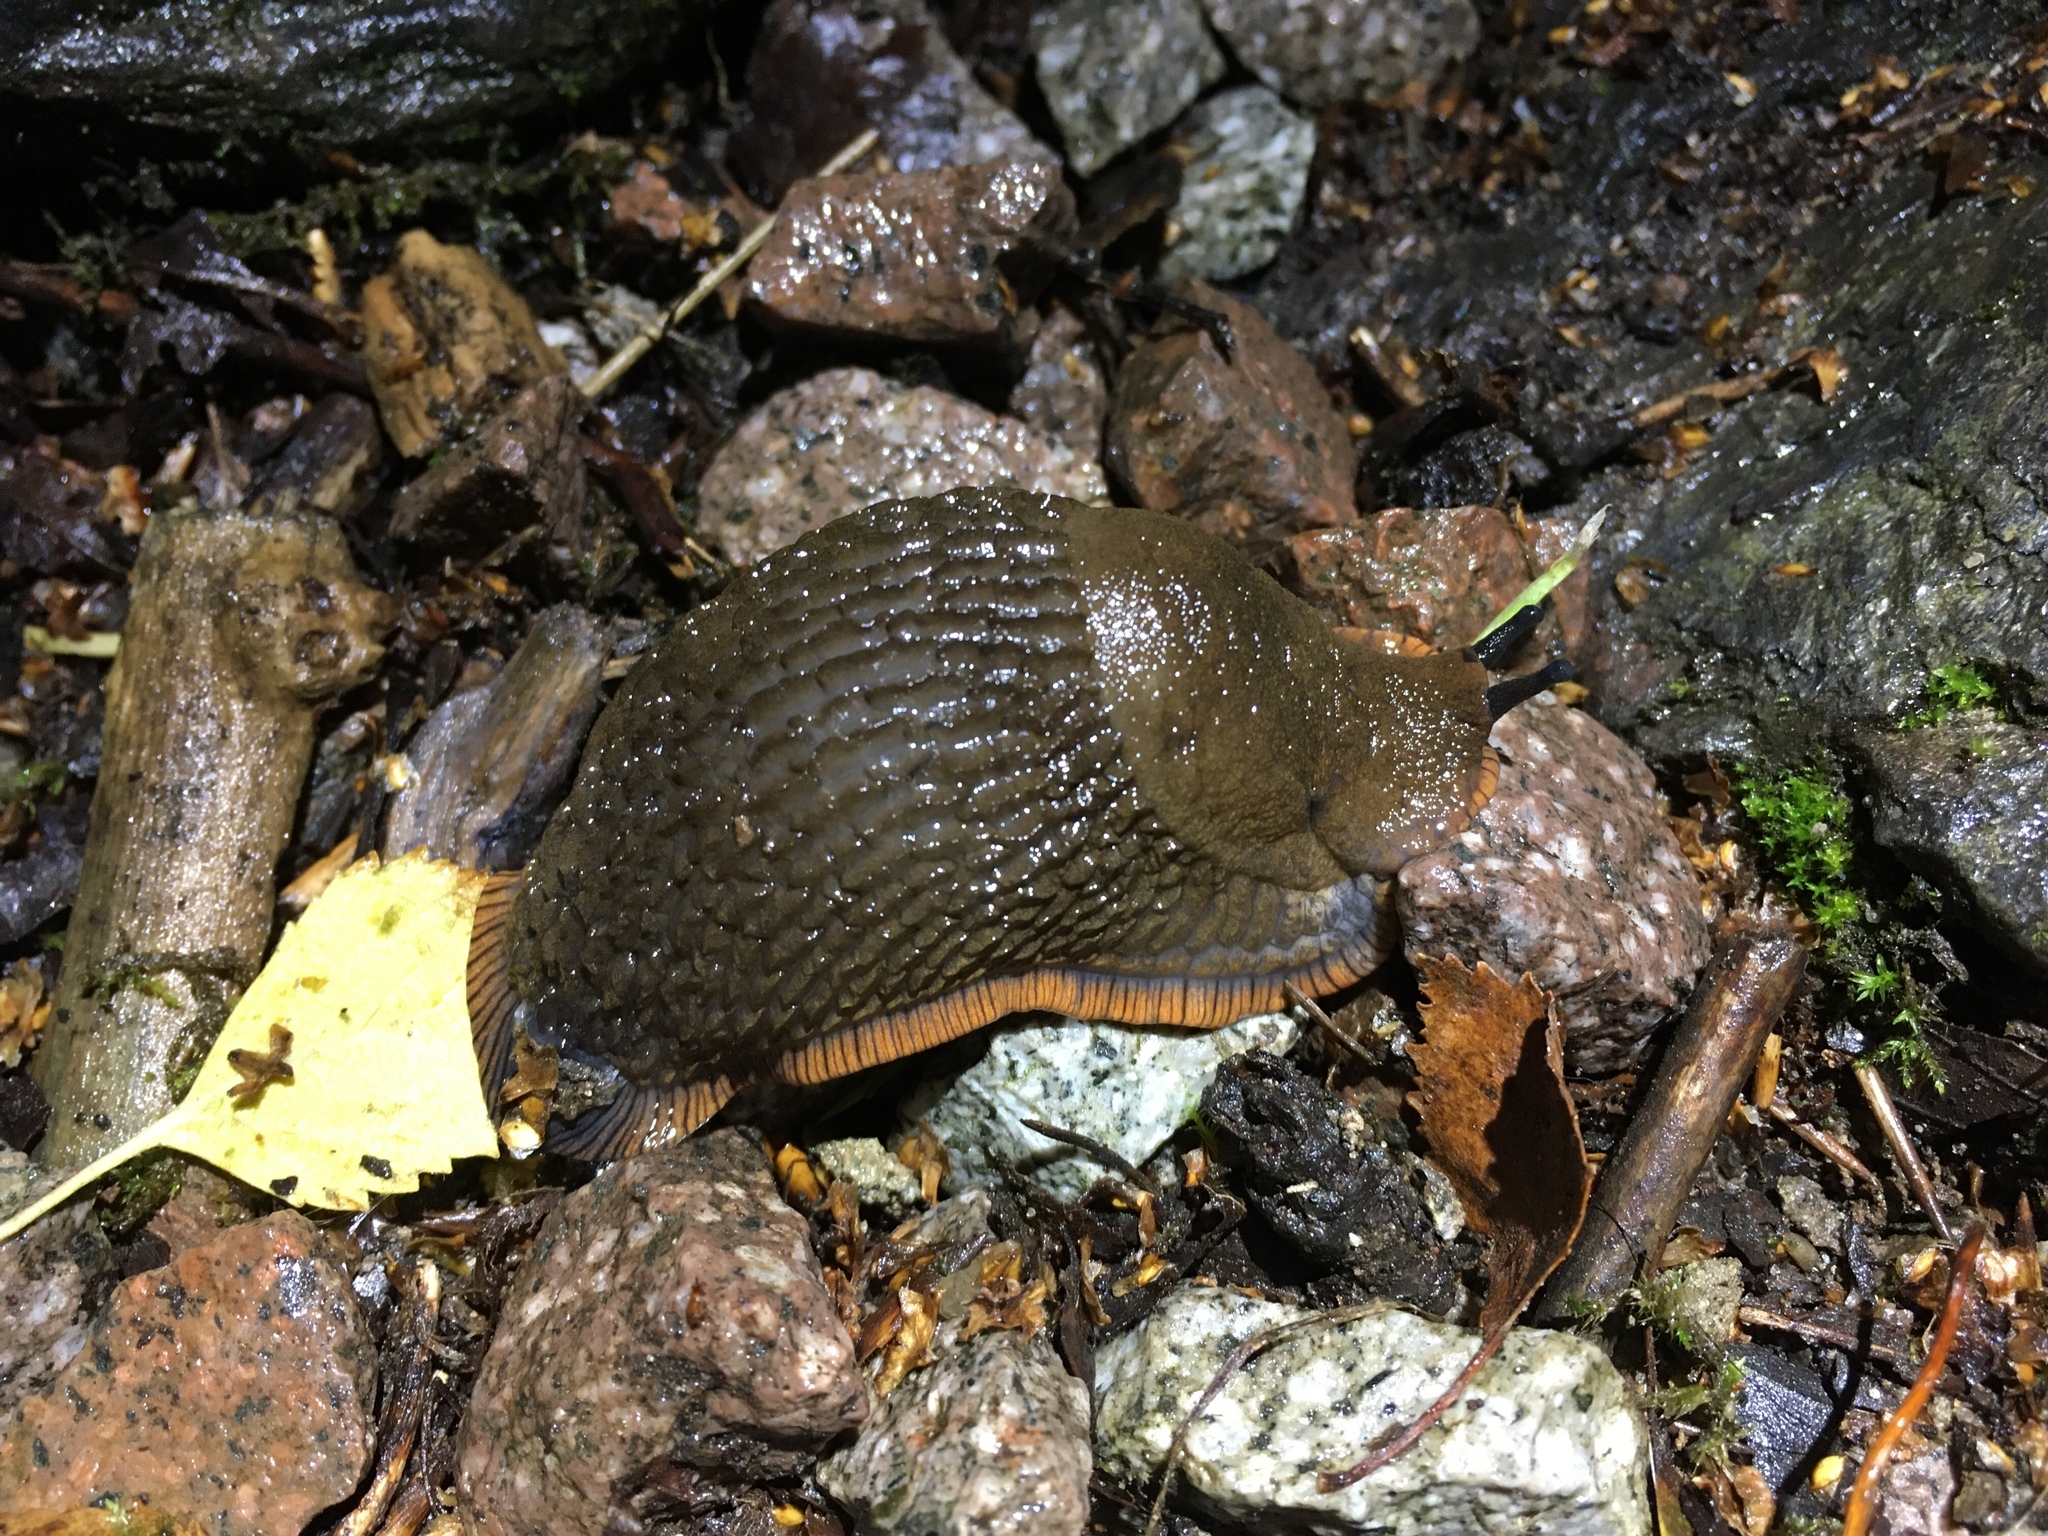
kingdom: Animalia
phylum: Mollusca
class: Gastropoda
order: Stylommatophora
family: Arionidae
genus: Arion
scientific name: Arion
